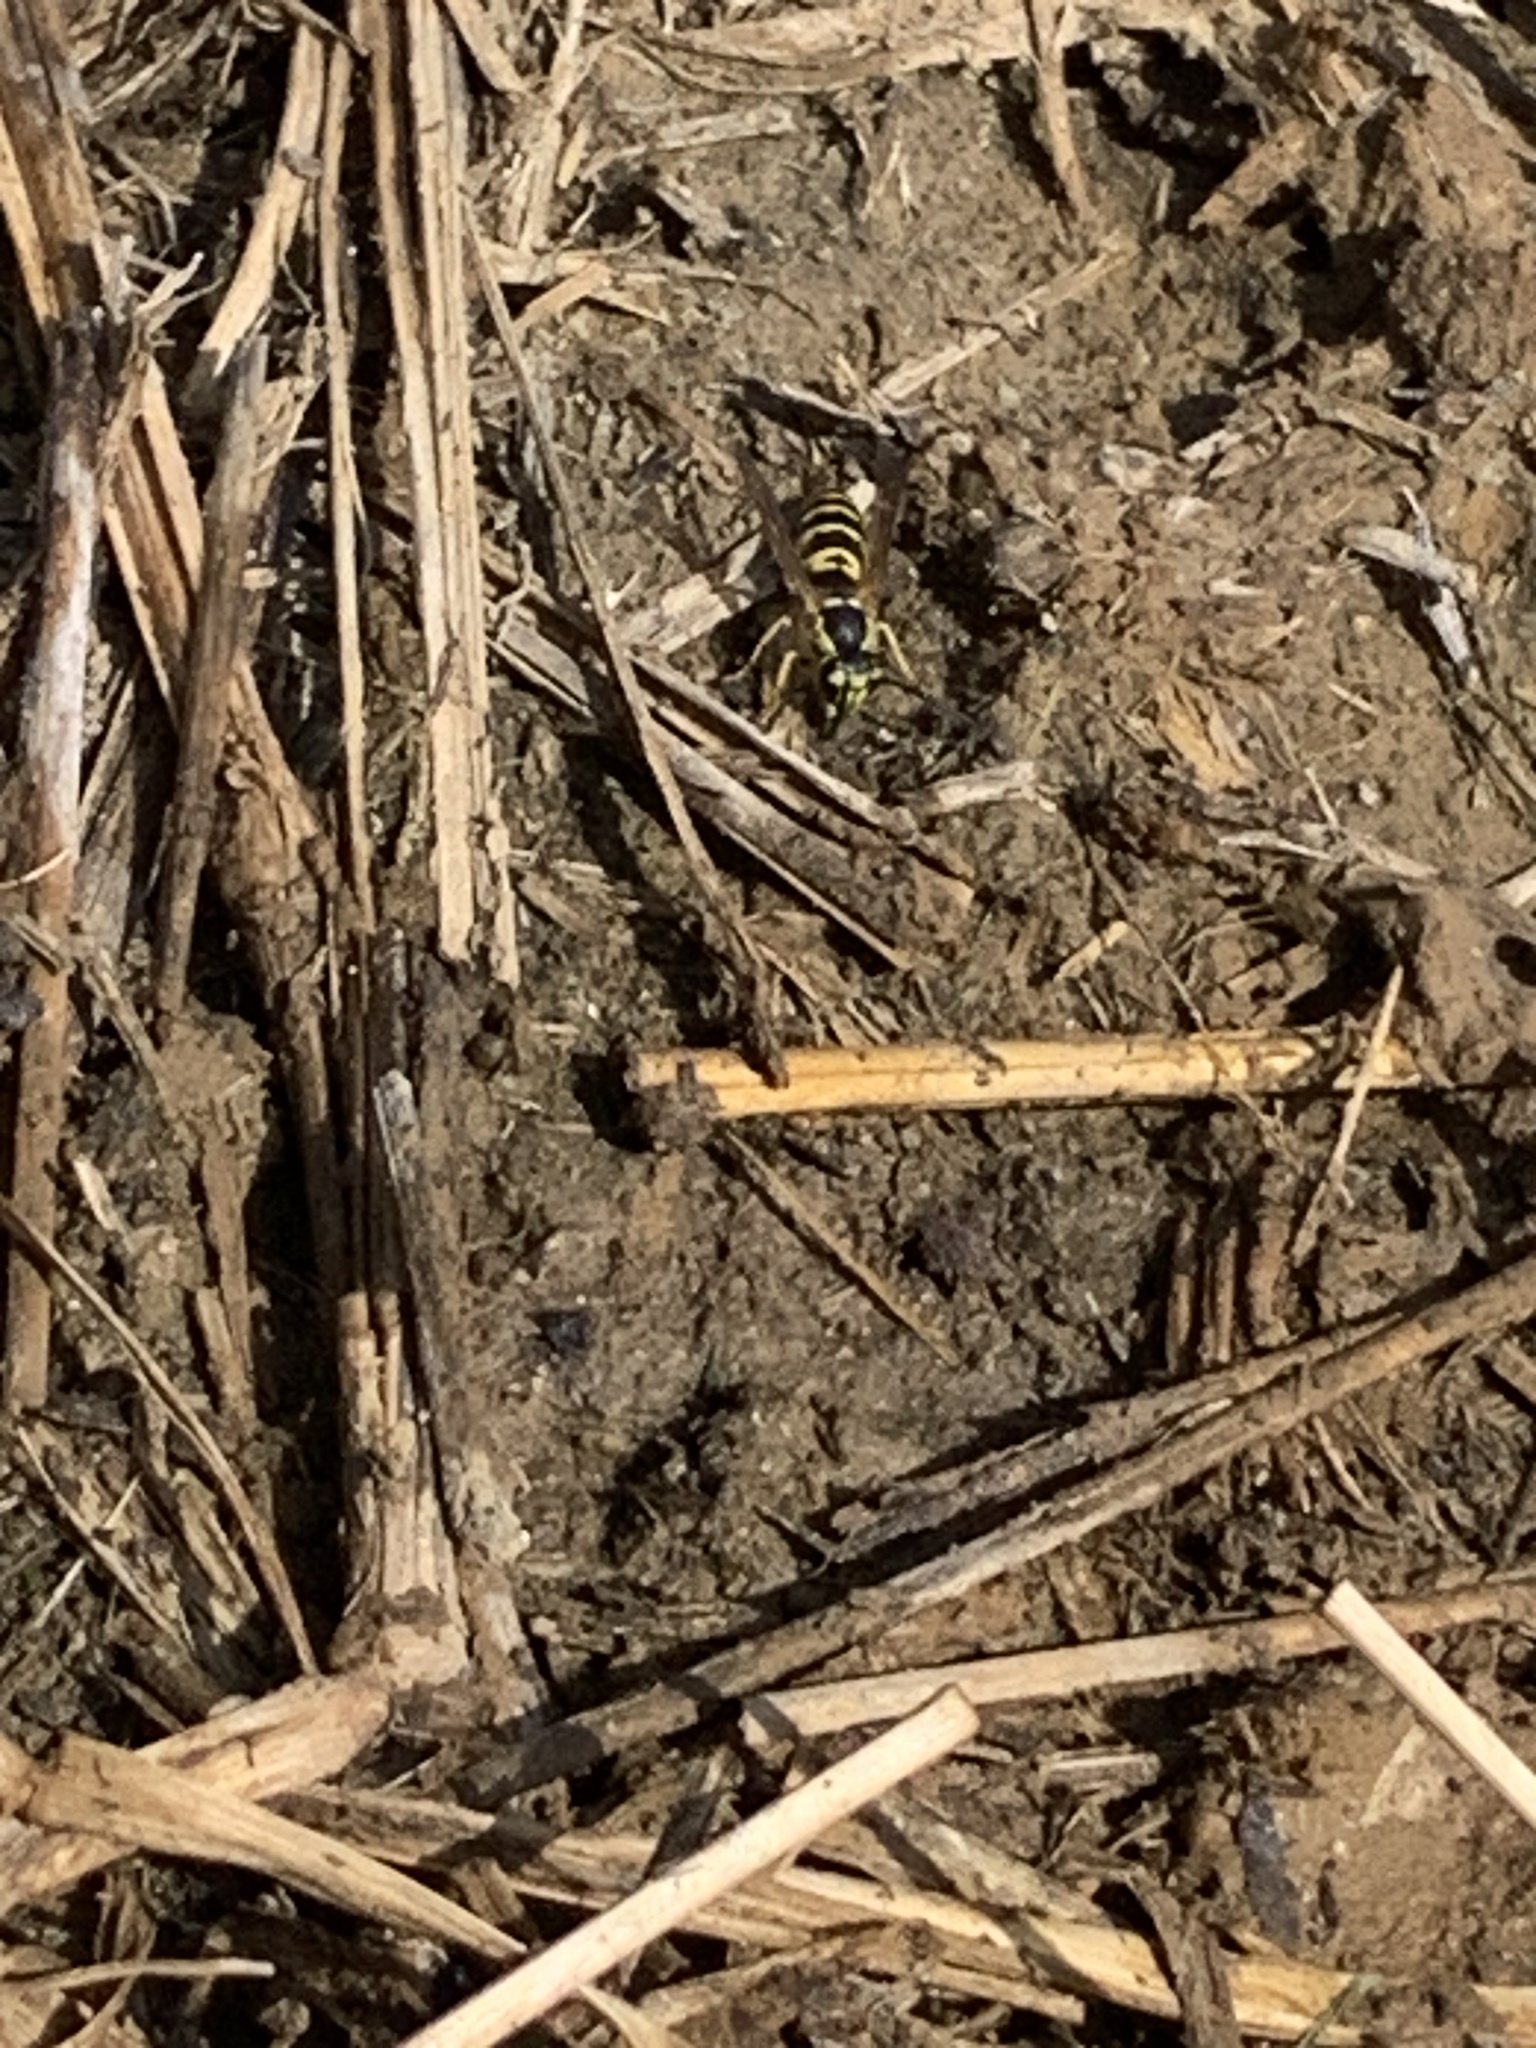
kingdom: Animalia
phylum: Arthropoda
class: Insecta
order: Hymenoptera
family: Vespidae
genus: Vespula
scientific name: Vespula maculifrons
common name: Eastern yellowjacket
